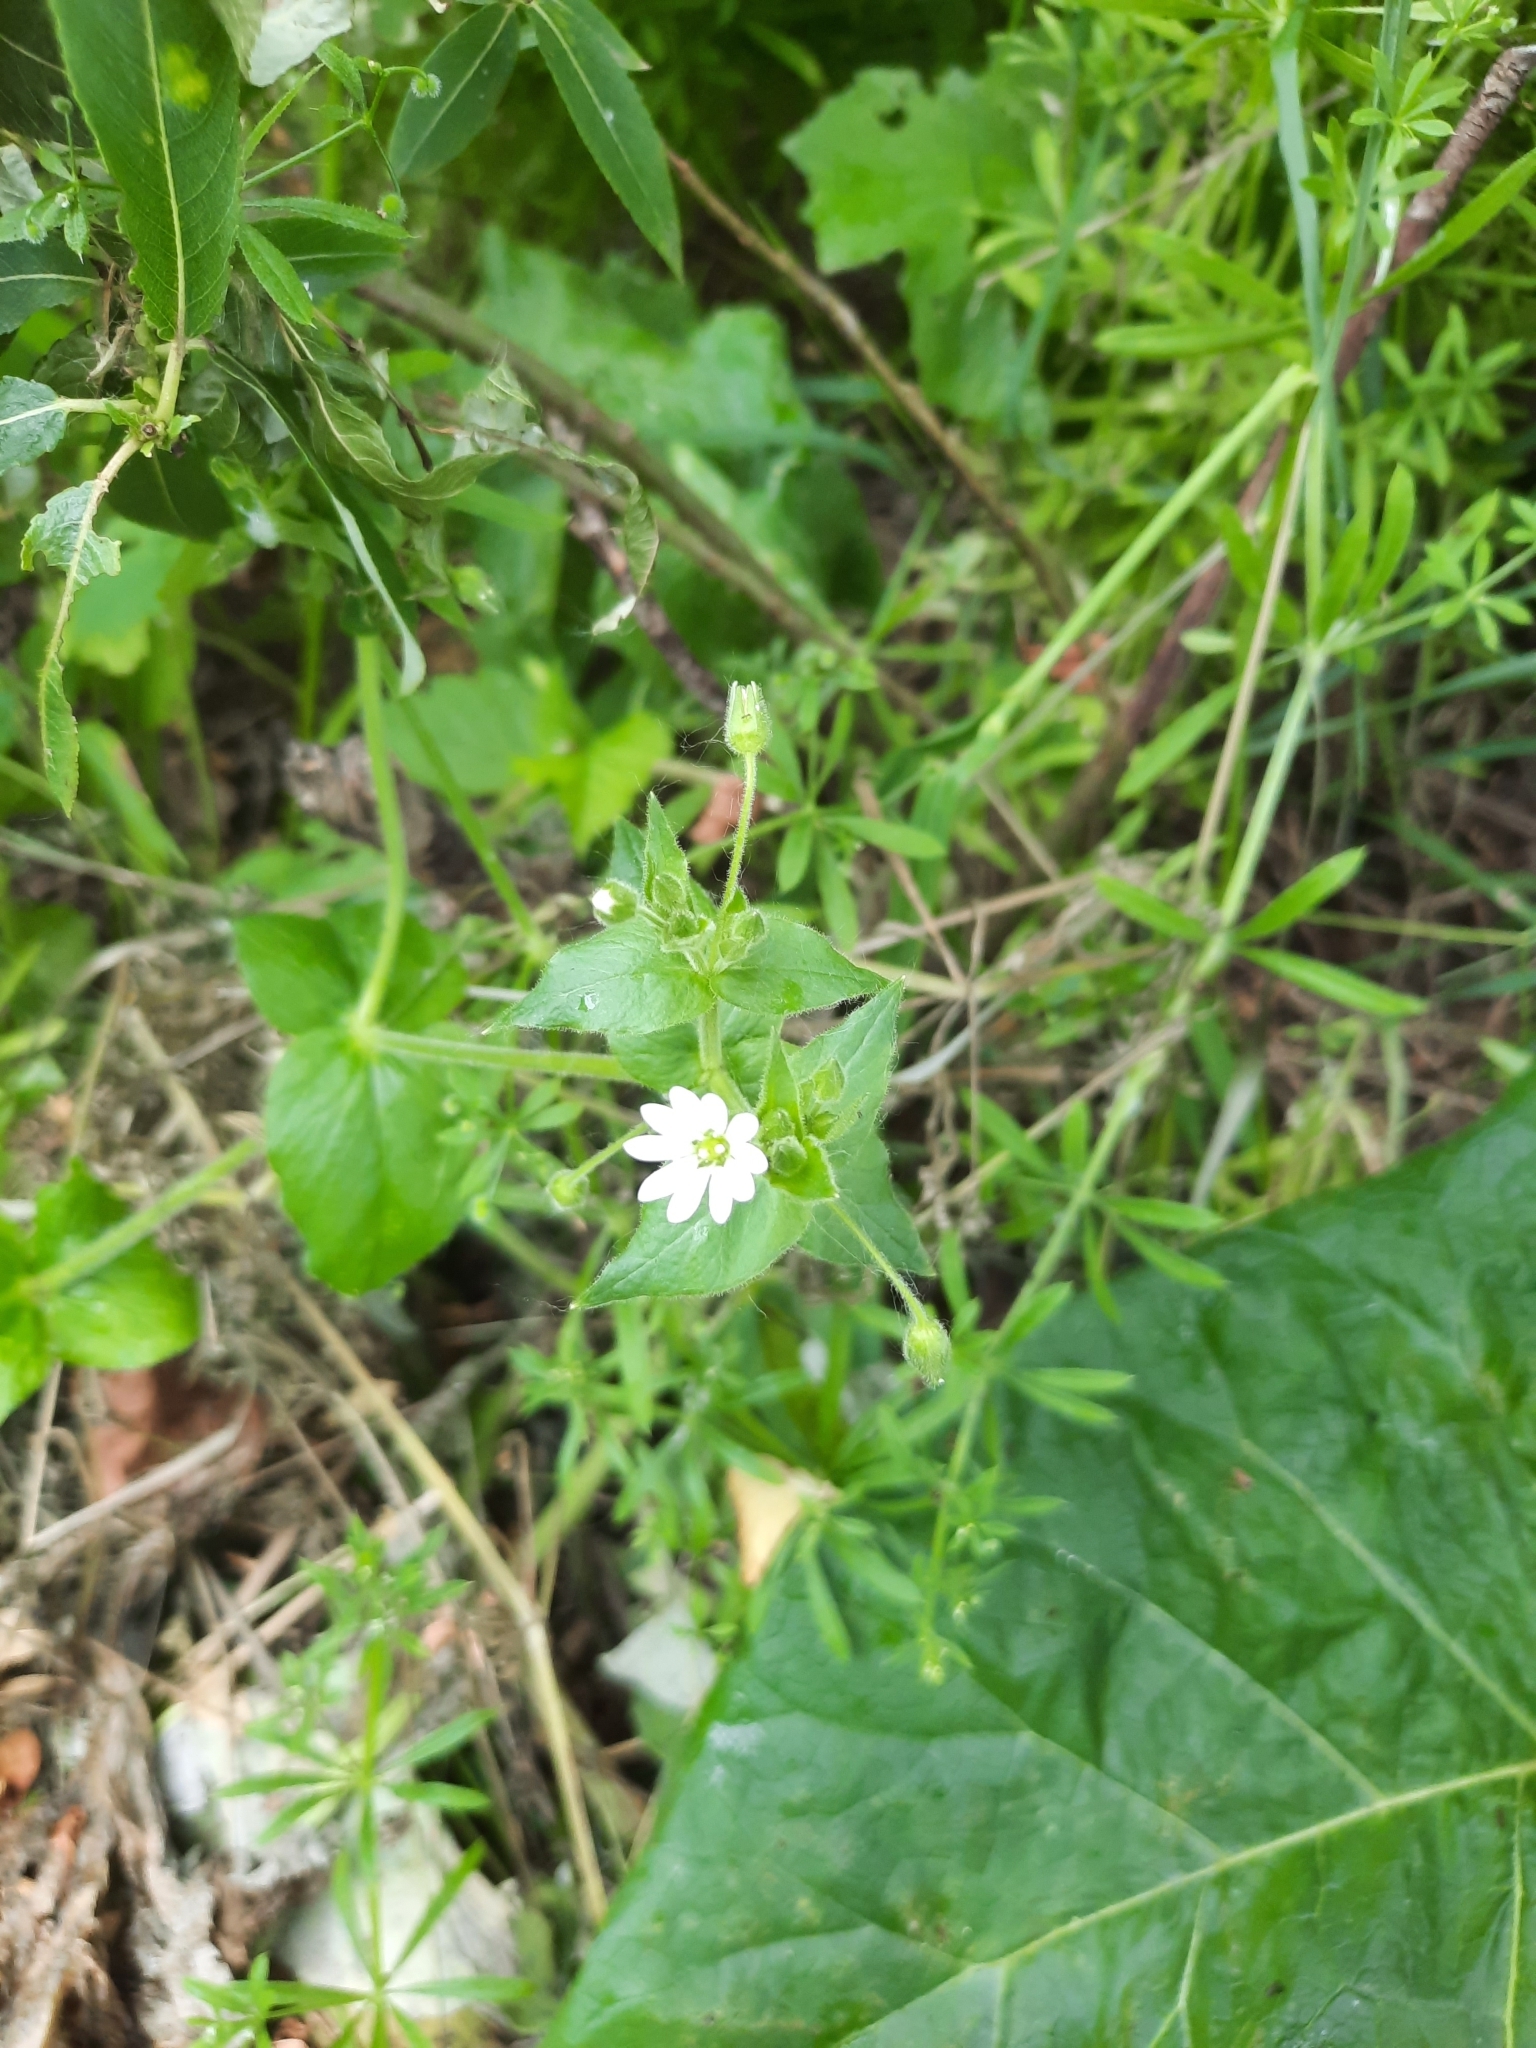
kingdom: Plantae
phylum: Tracheophyta
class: Magnoliopsida
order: Caryophyllales
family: Caryophyllaceae
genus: Stellaria
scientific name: Stellaria aquatica
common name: Water chickweed
